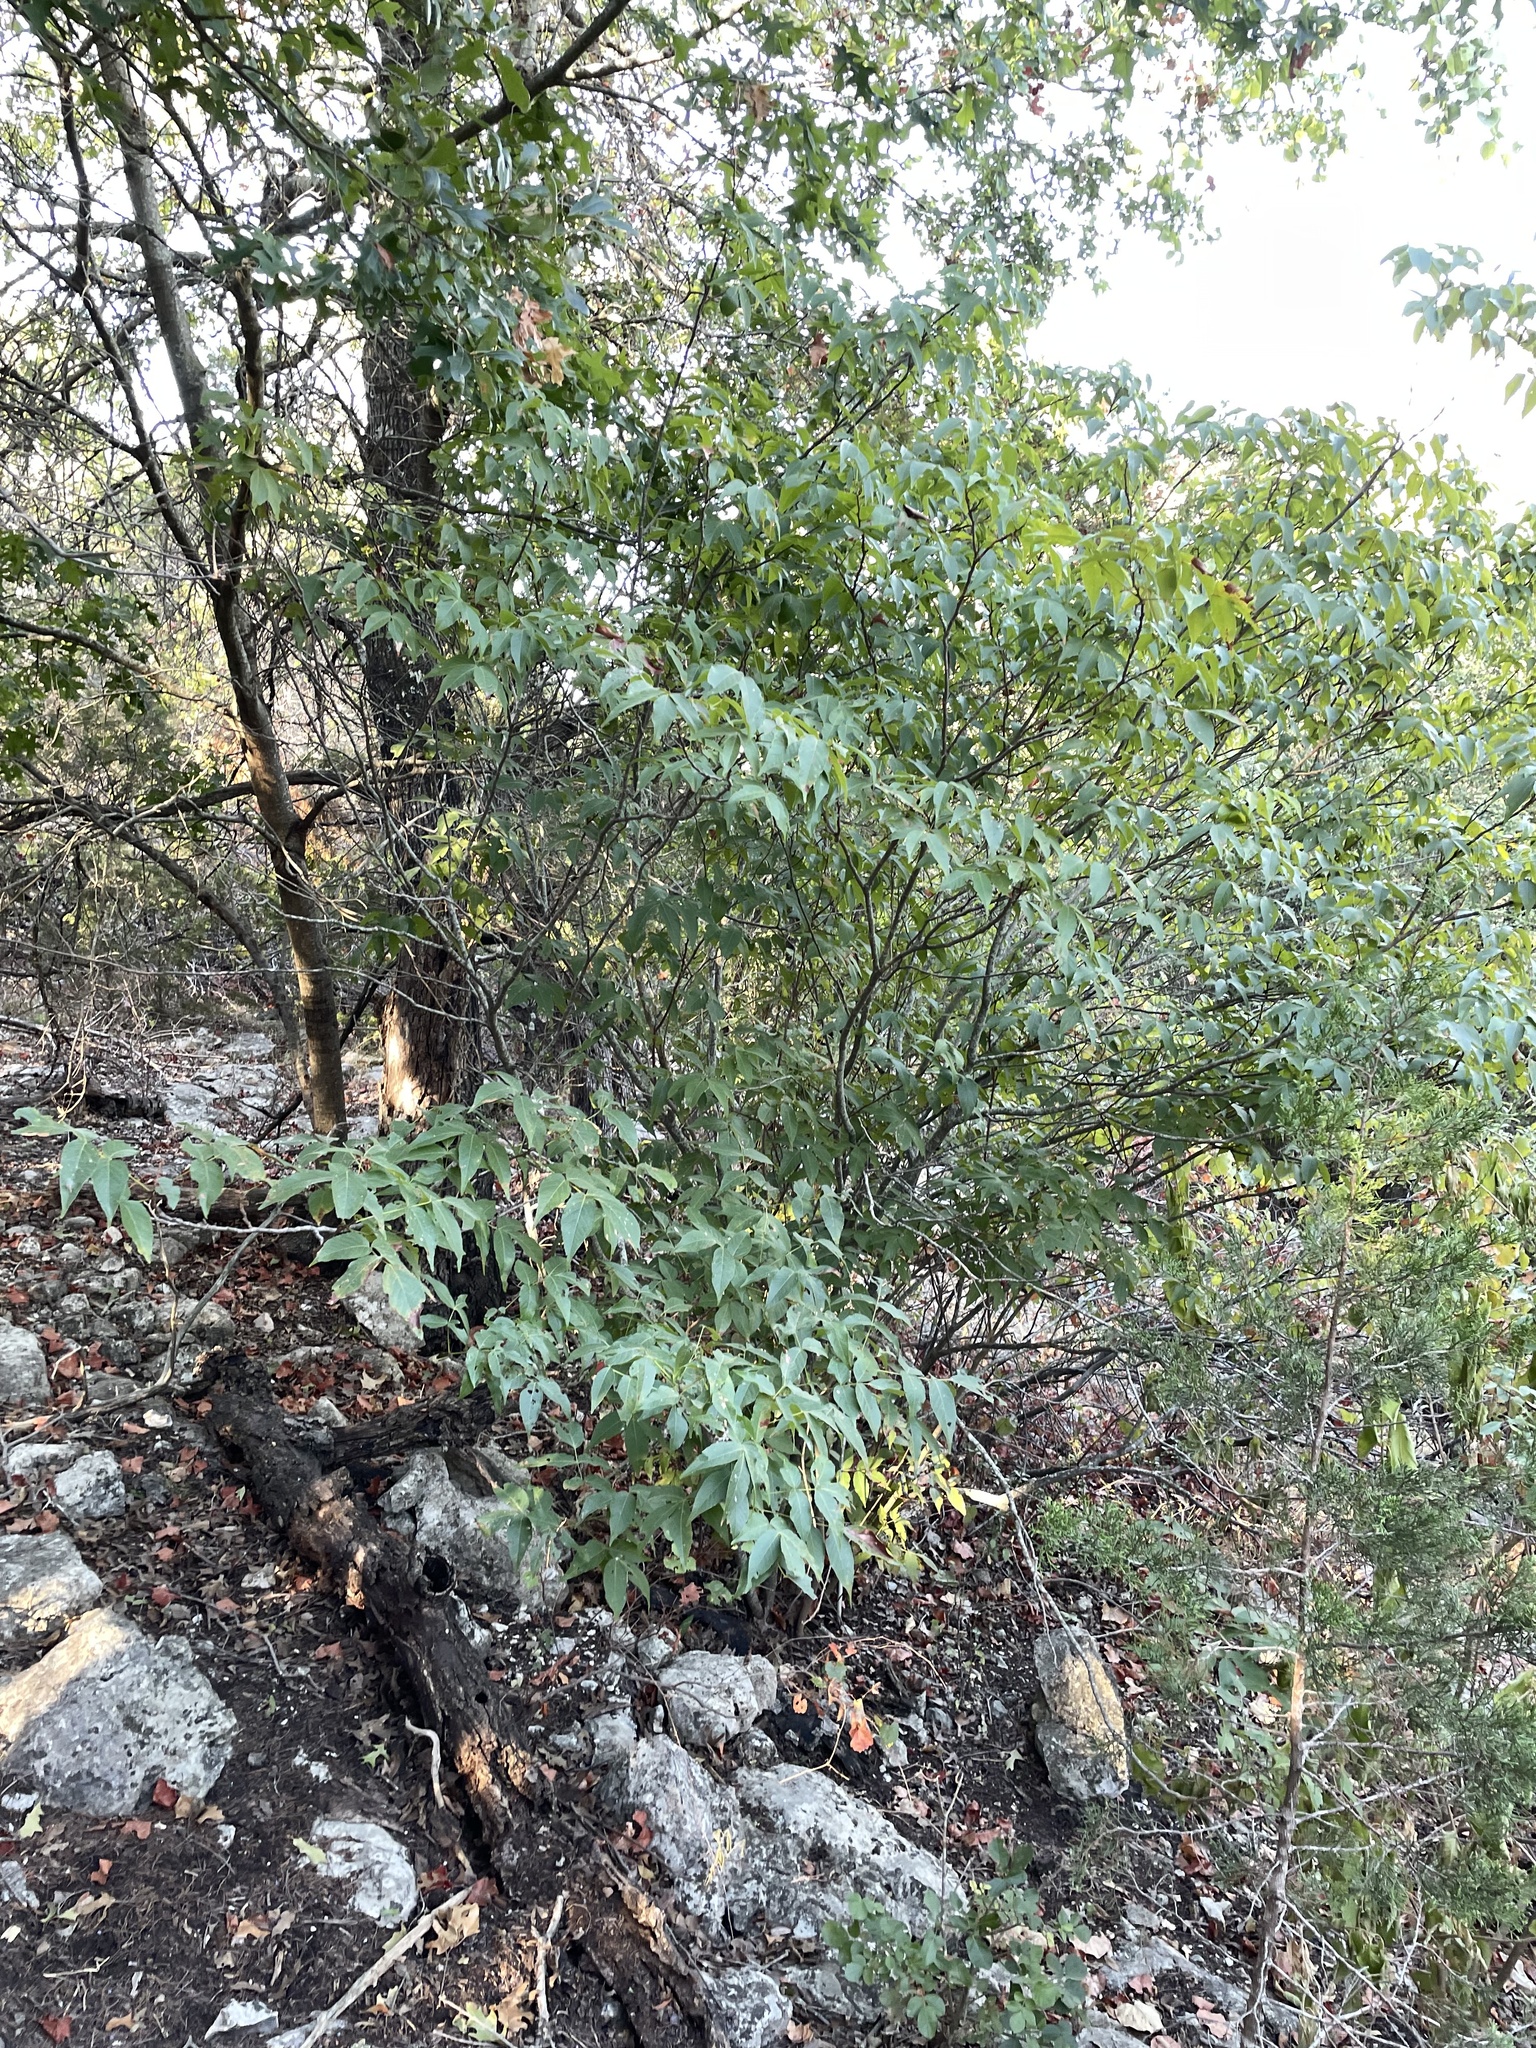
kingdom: Plantae
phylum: Tracheophyta
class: Magnoliopsida
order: Sapindales
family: Sapindaceae
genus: Ungnadia
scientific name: Ungnadia speciosa
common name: Texas-buckeye
